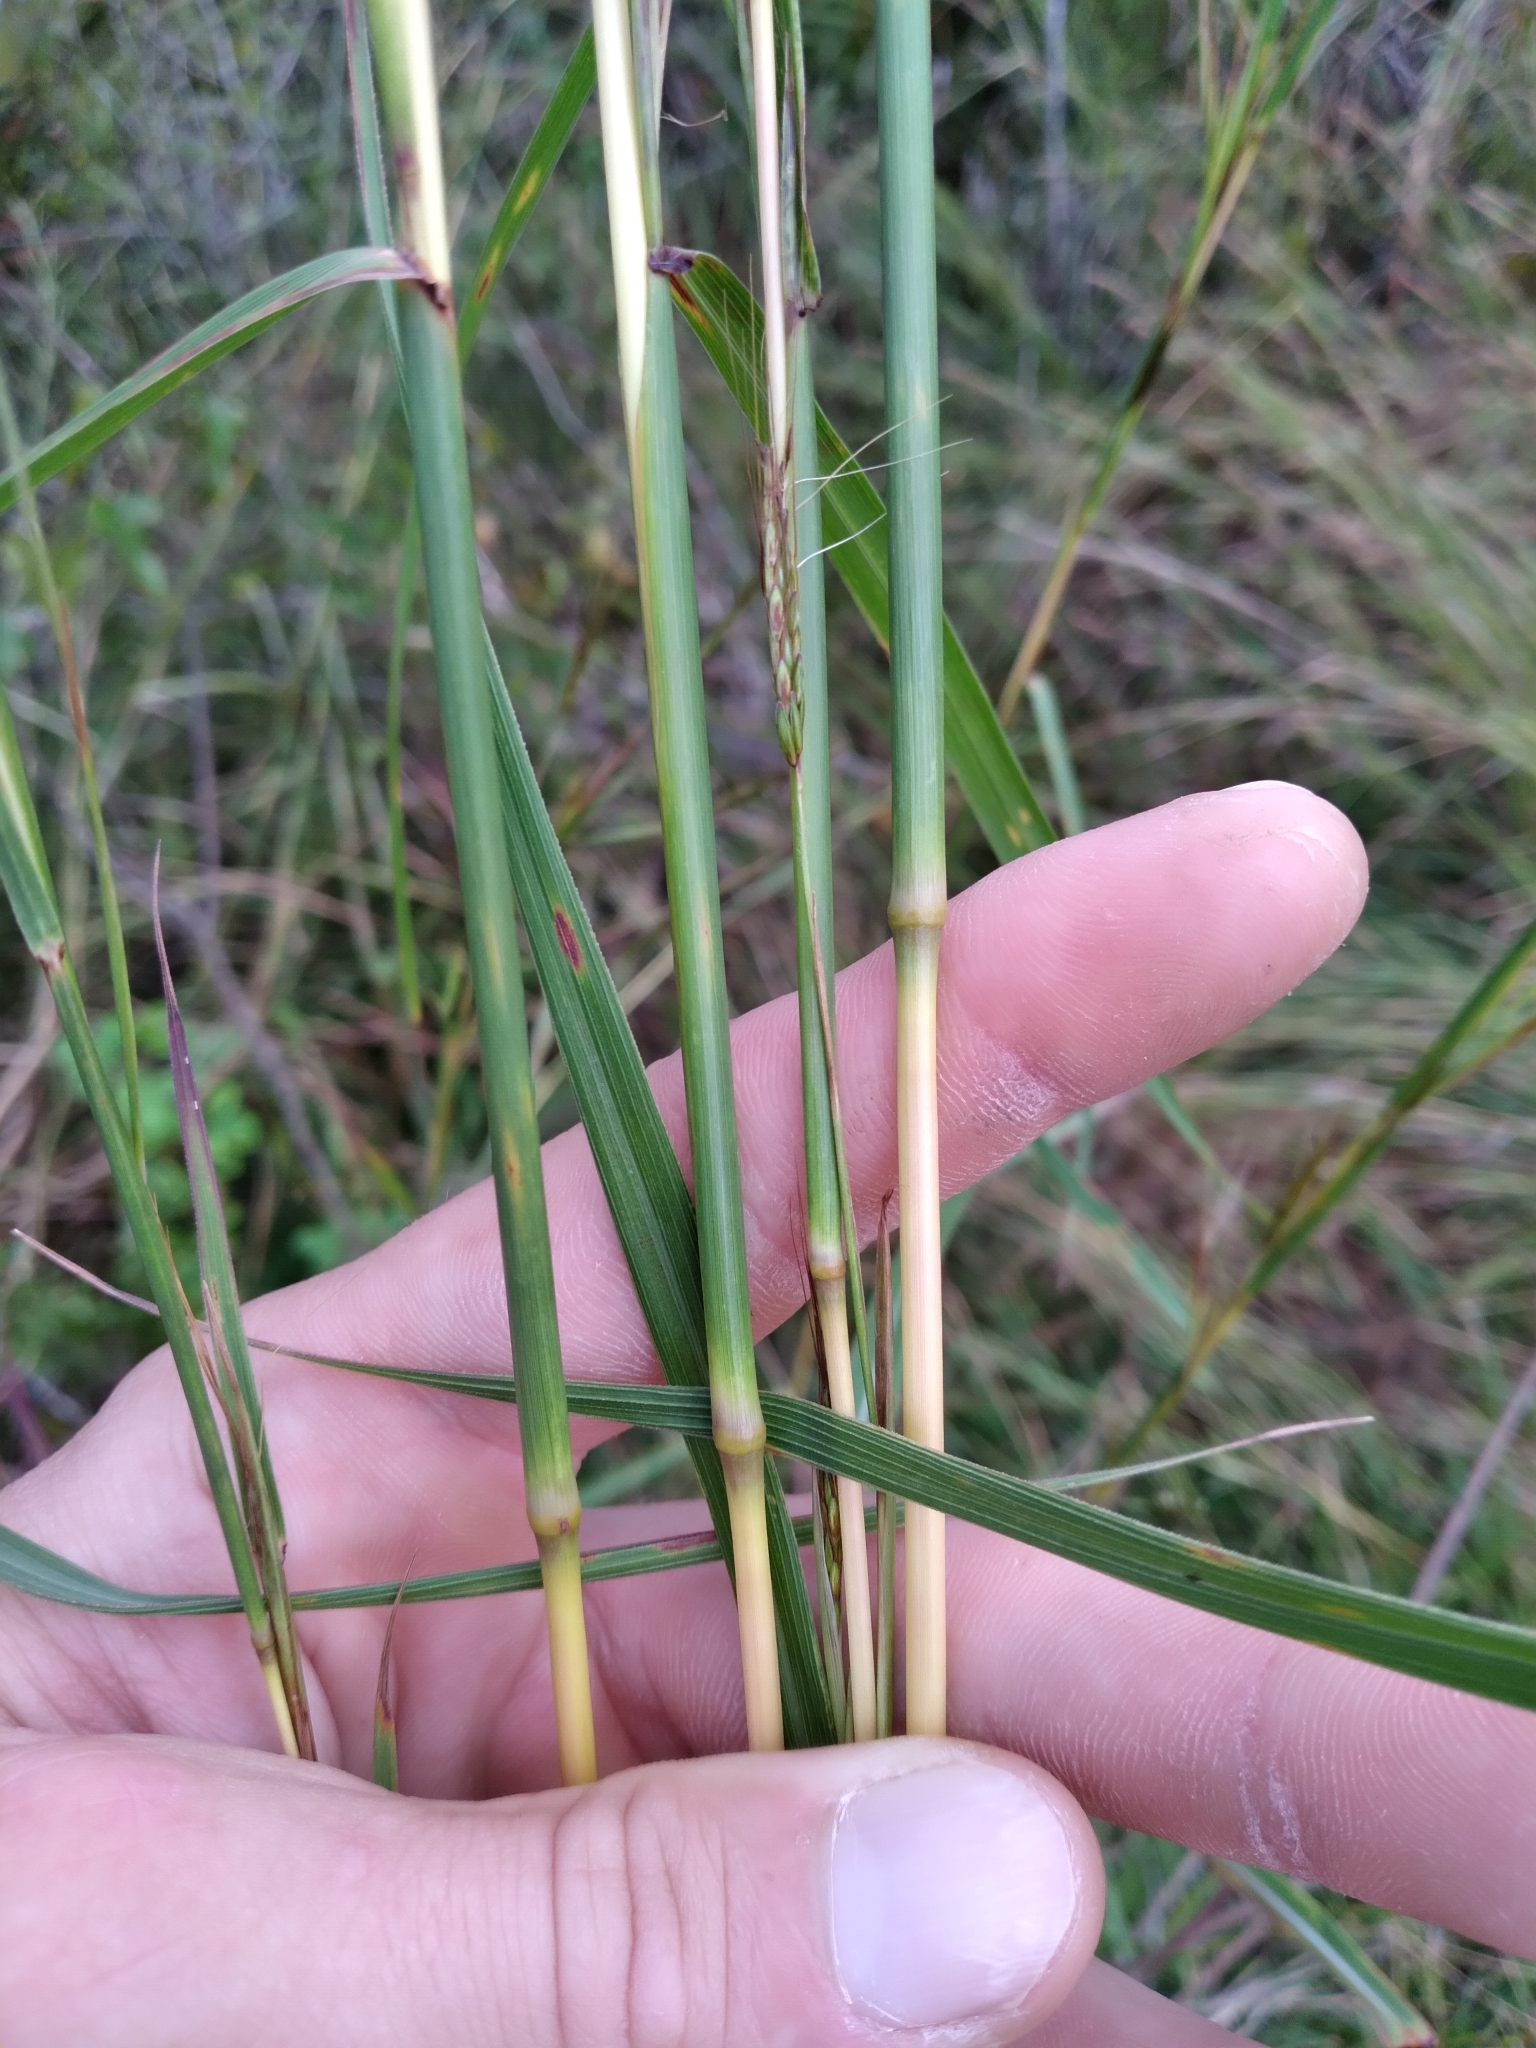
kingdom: Plantae
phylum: Tracheophyta
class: Liliopsida
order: Poales
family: Poaceae
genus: Hyparrhenia
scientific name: Hyparrhenia rufa
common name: Jaraguagrass
